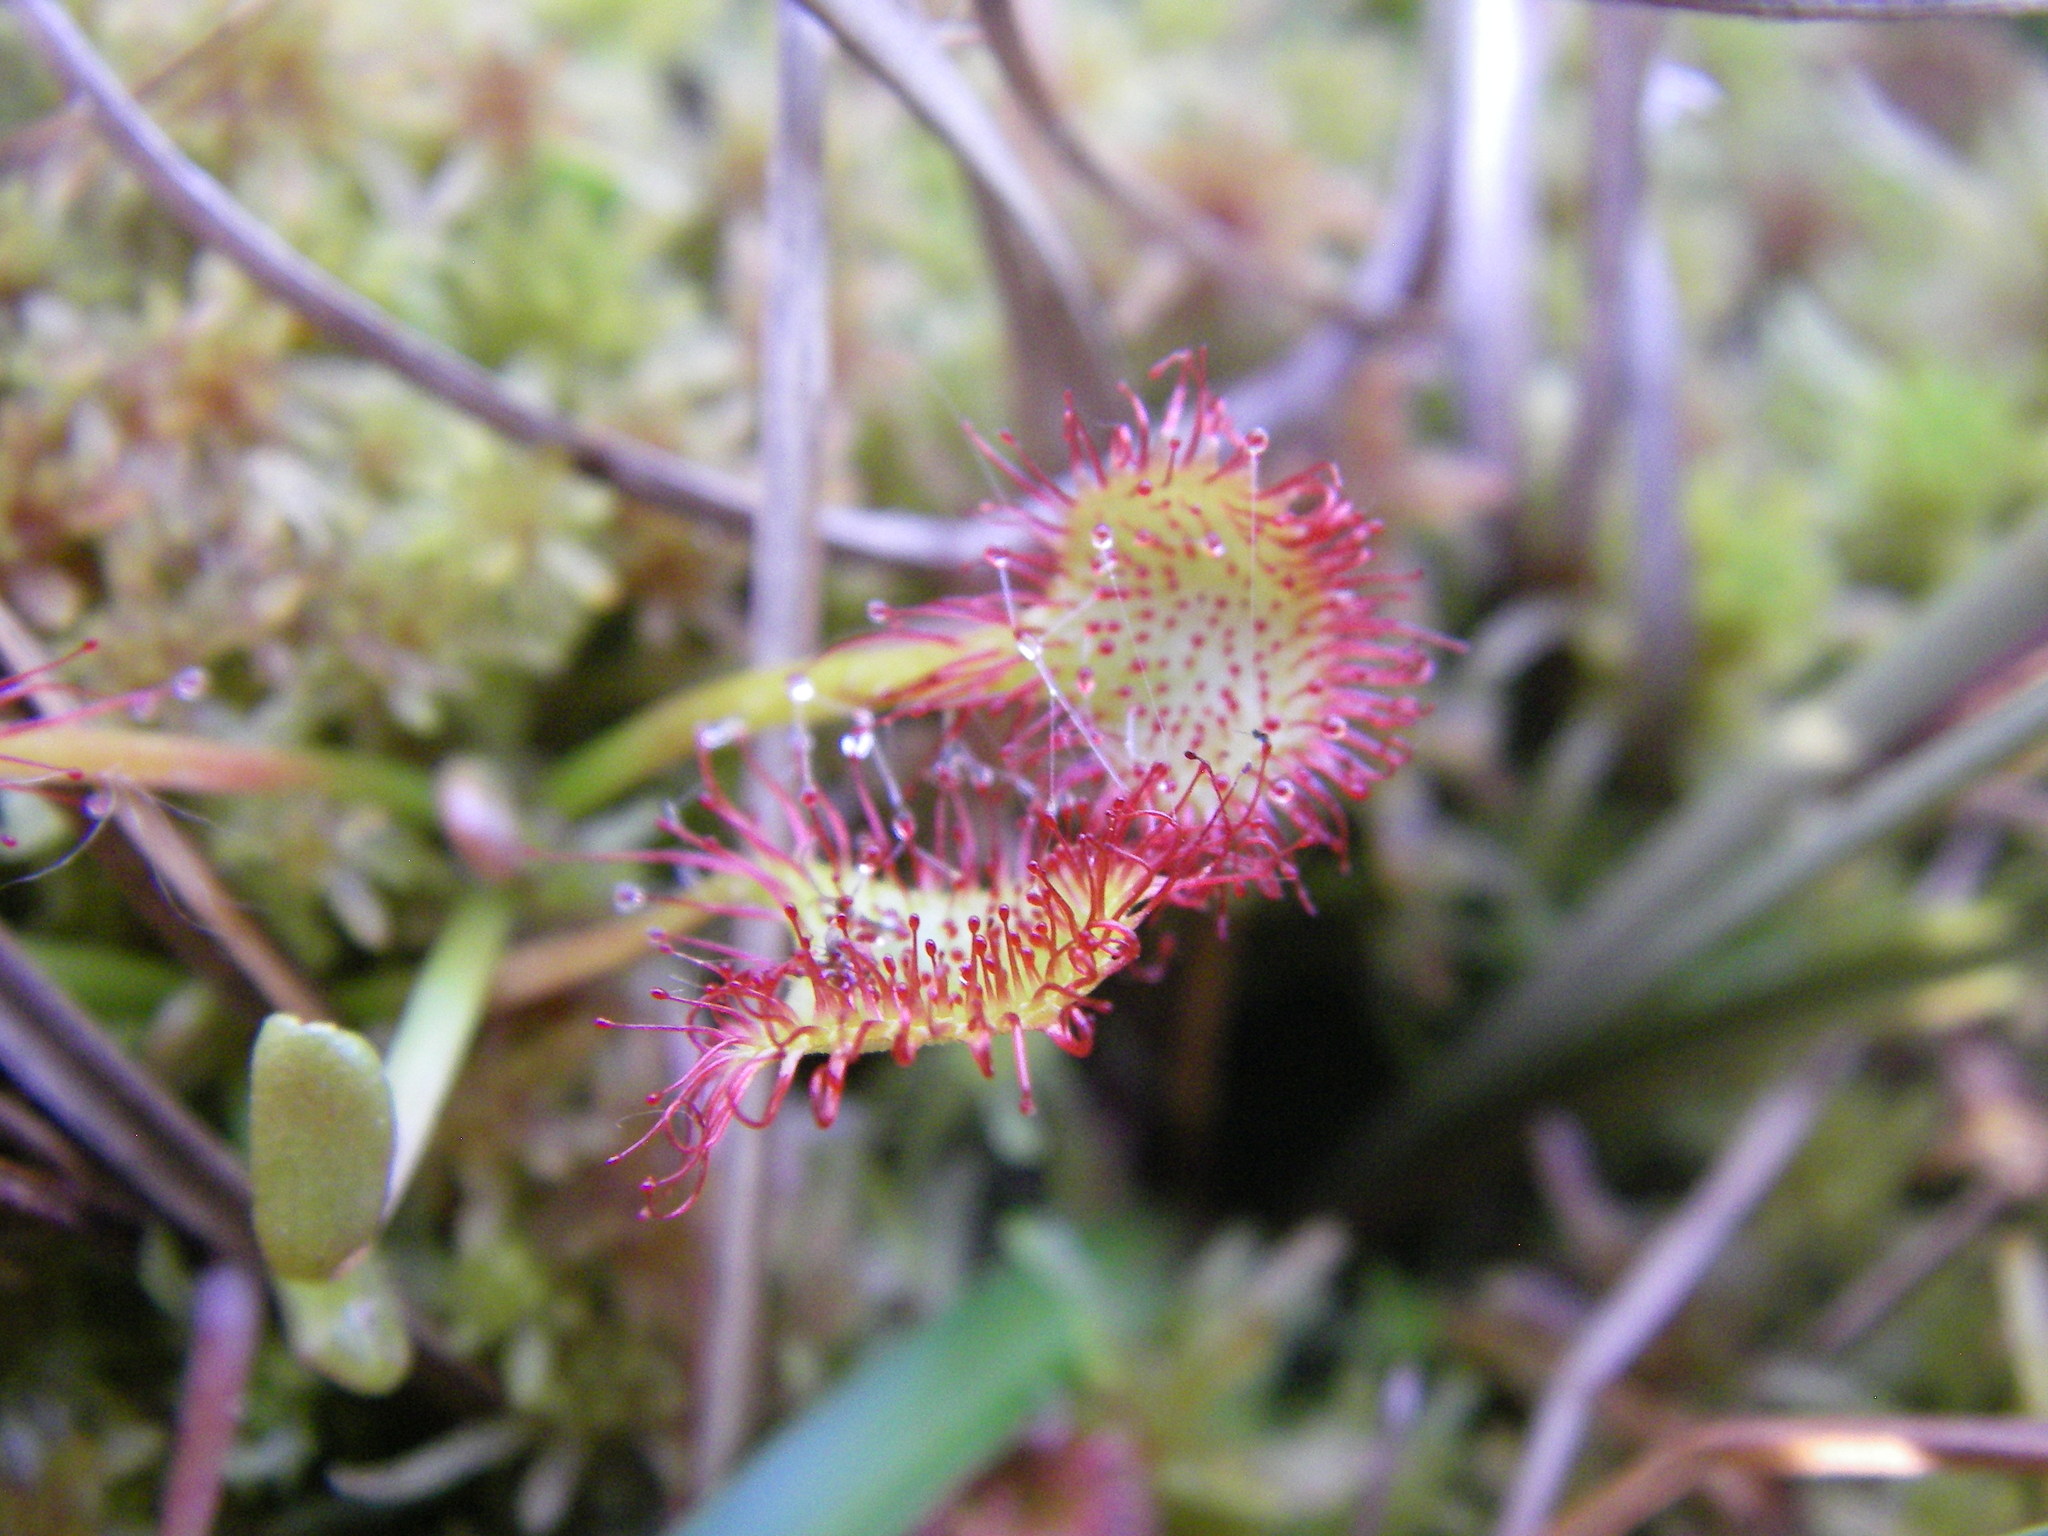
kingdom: Plantae
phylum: Tracheophyta
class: Magnoliopsida
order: Caryophyllales
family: Droseraceae
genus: Drosera
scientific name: Drosera rotundifolia
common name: Round-leaved sundew
